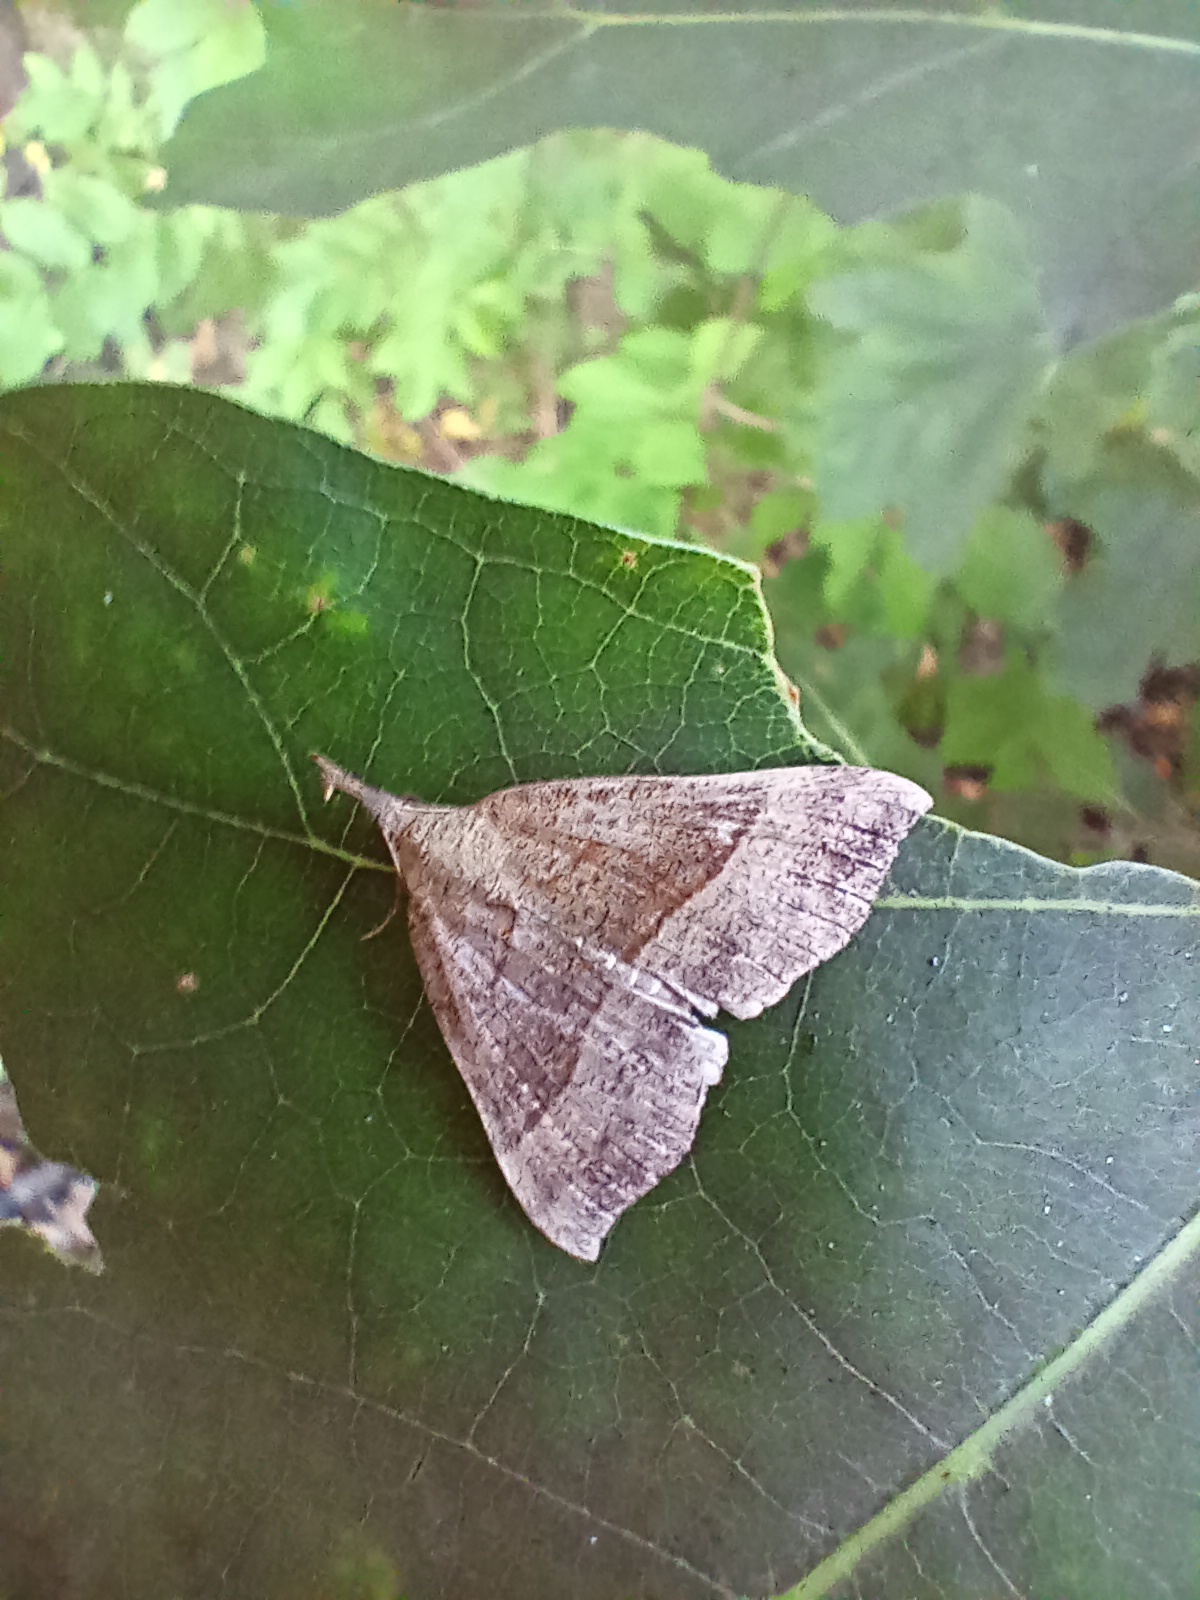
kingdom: Animalia
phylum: Arthropoda
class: Insecta
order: Lepidoptera
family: Erebidae
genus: Hypena
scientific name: Hypena proboscidalis
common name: Snout
